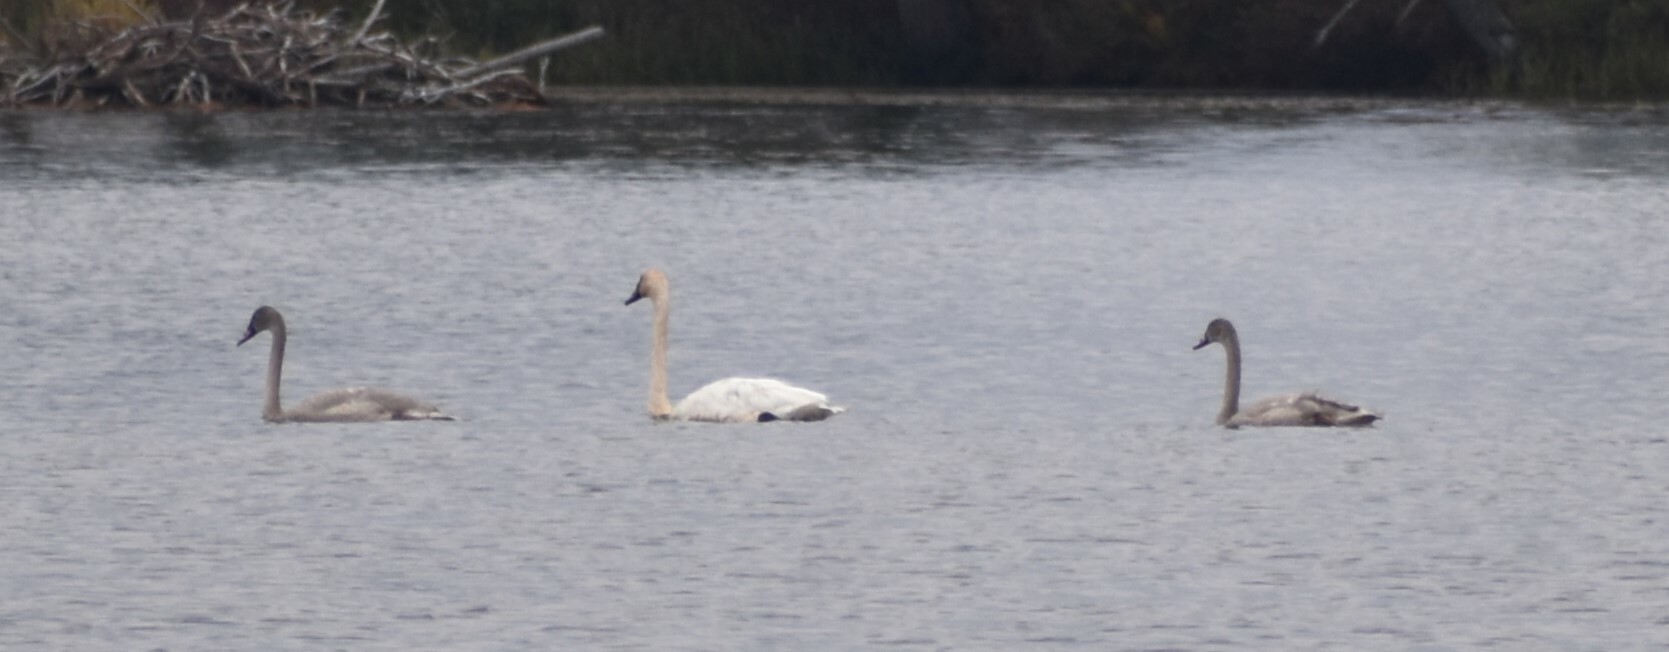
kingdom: Animalia
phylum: Chordata
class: Aves
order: Anseriformes
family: Anatidae
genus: Cygnus
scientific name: Cygnus buccinator
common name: Trumpeter swan
